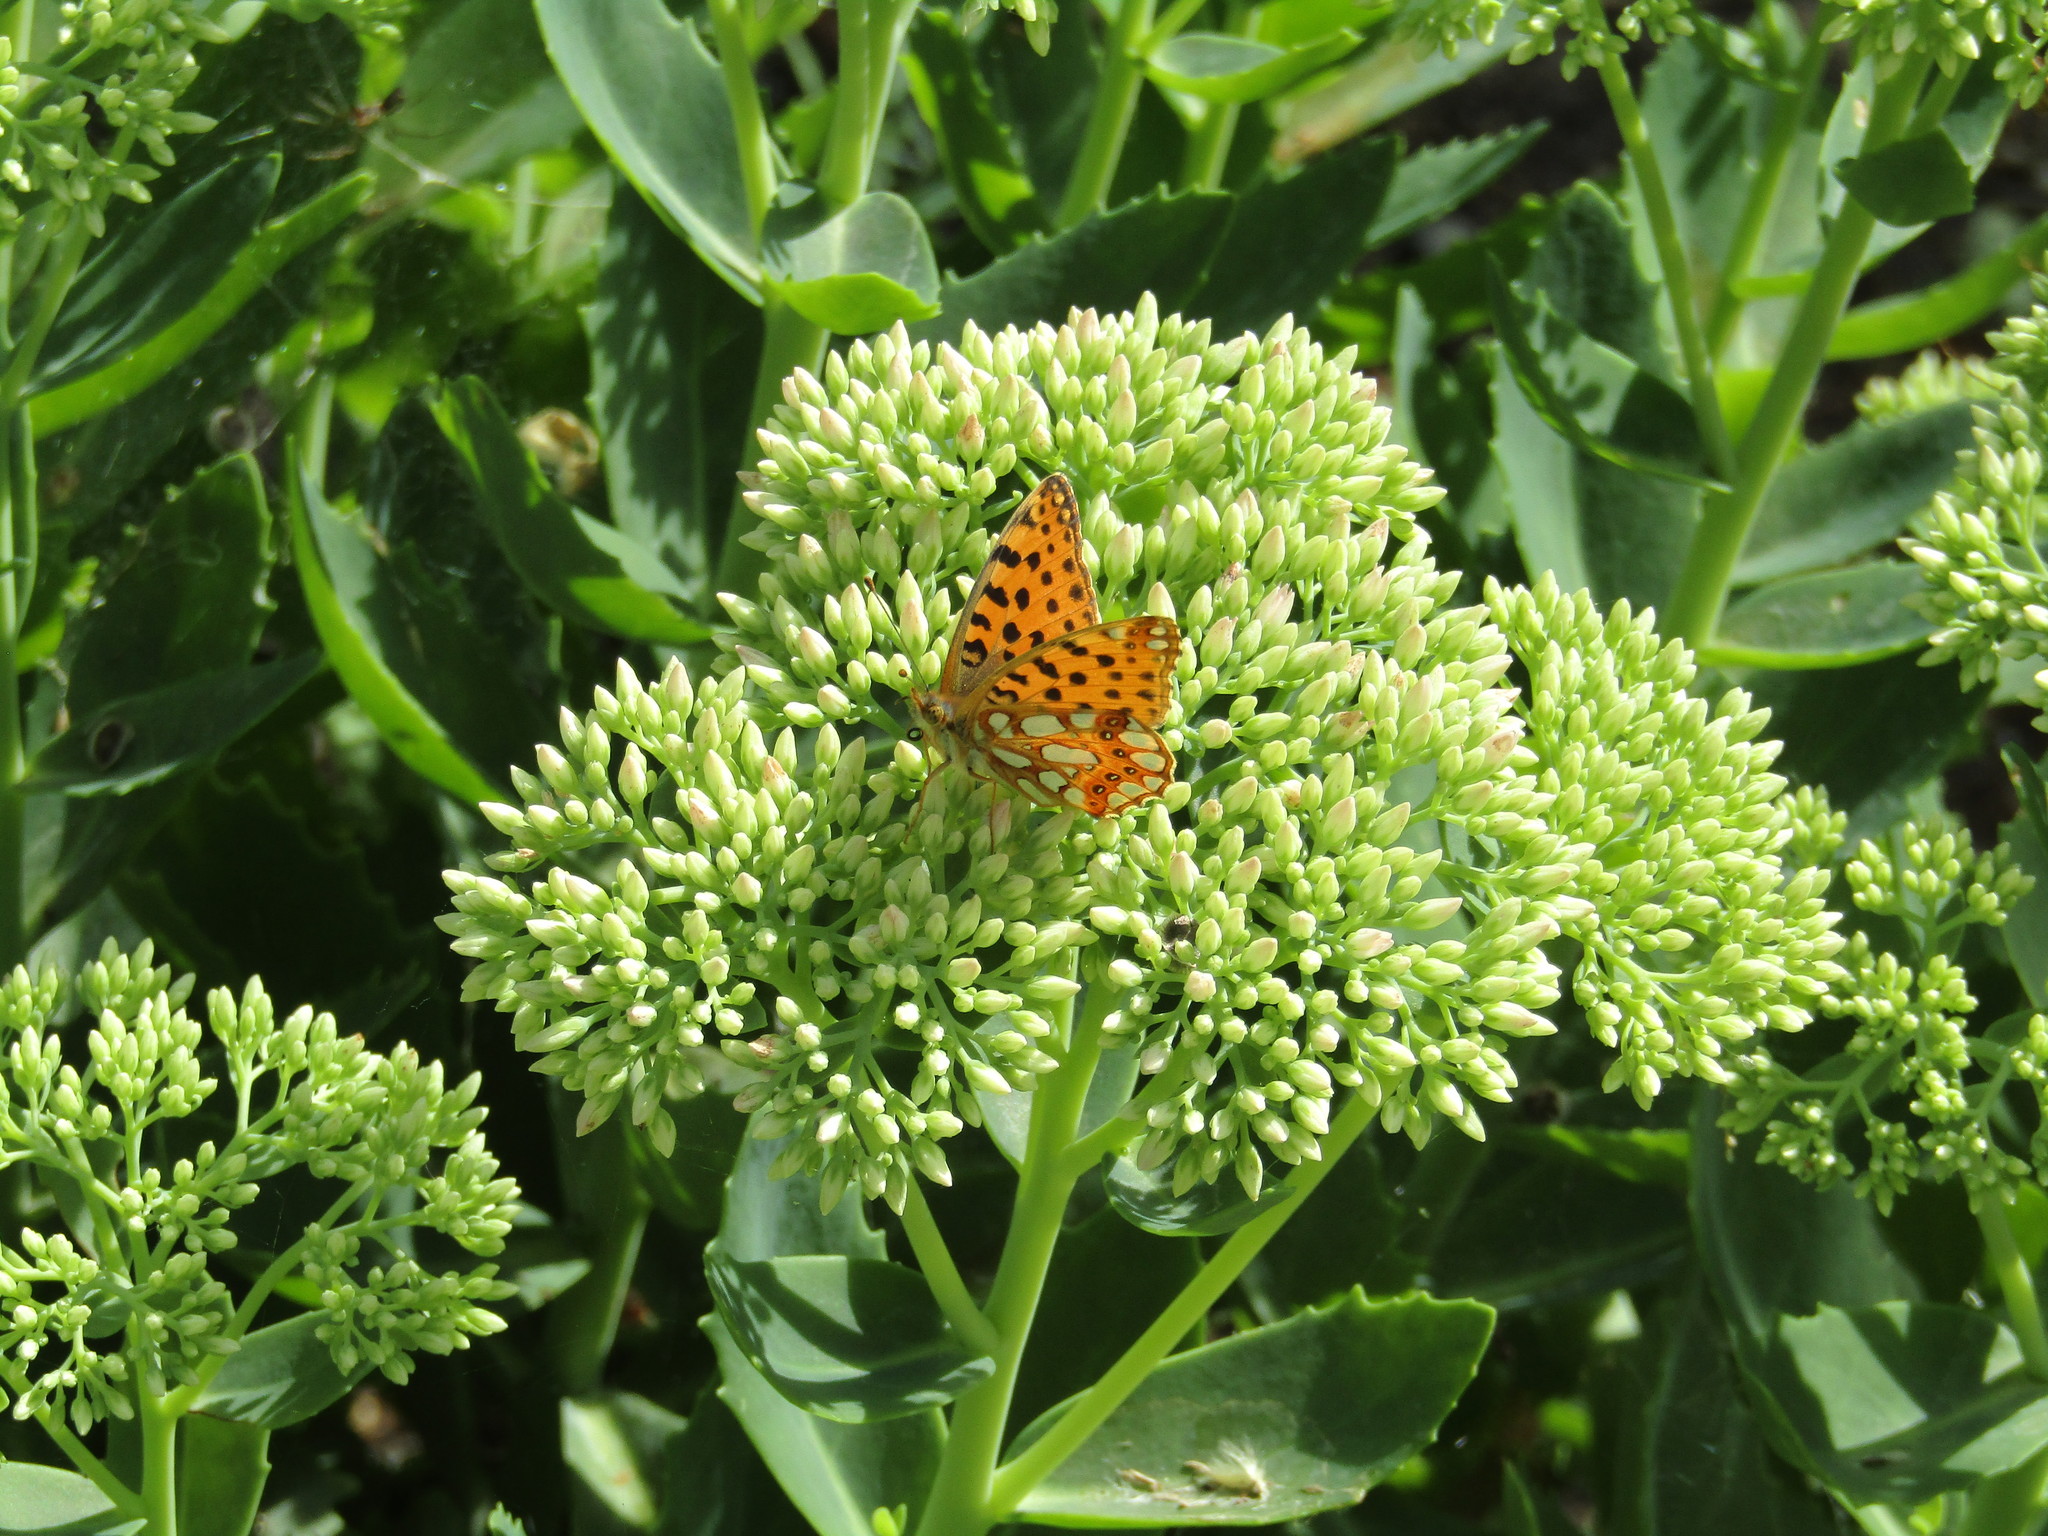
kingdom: Animalia
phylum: Arthropoda
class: Insecta
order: Lepidoptera
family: Nymphalidae
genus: Issoria
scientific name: Issoria lathonia
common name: Queen of spain fritillary
